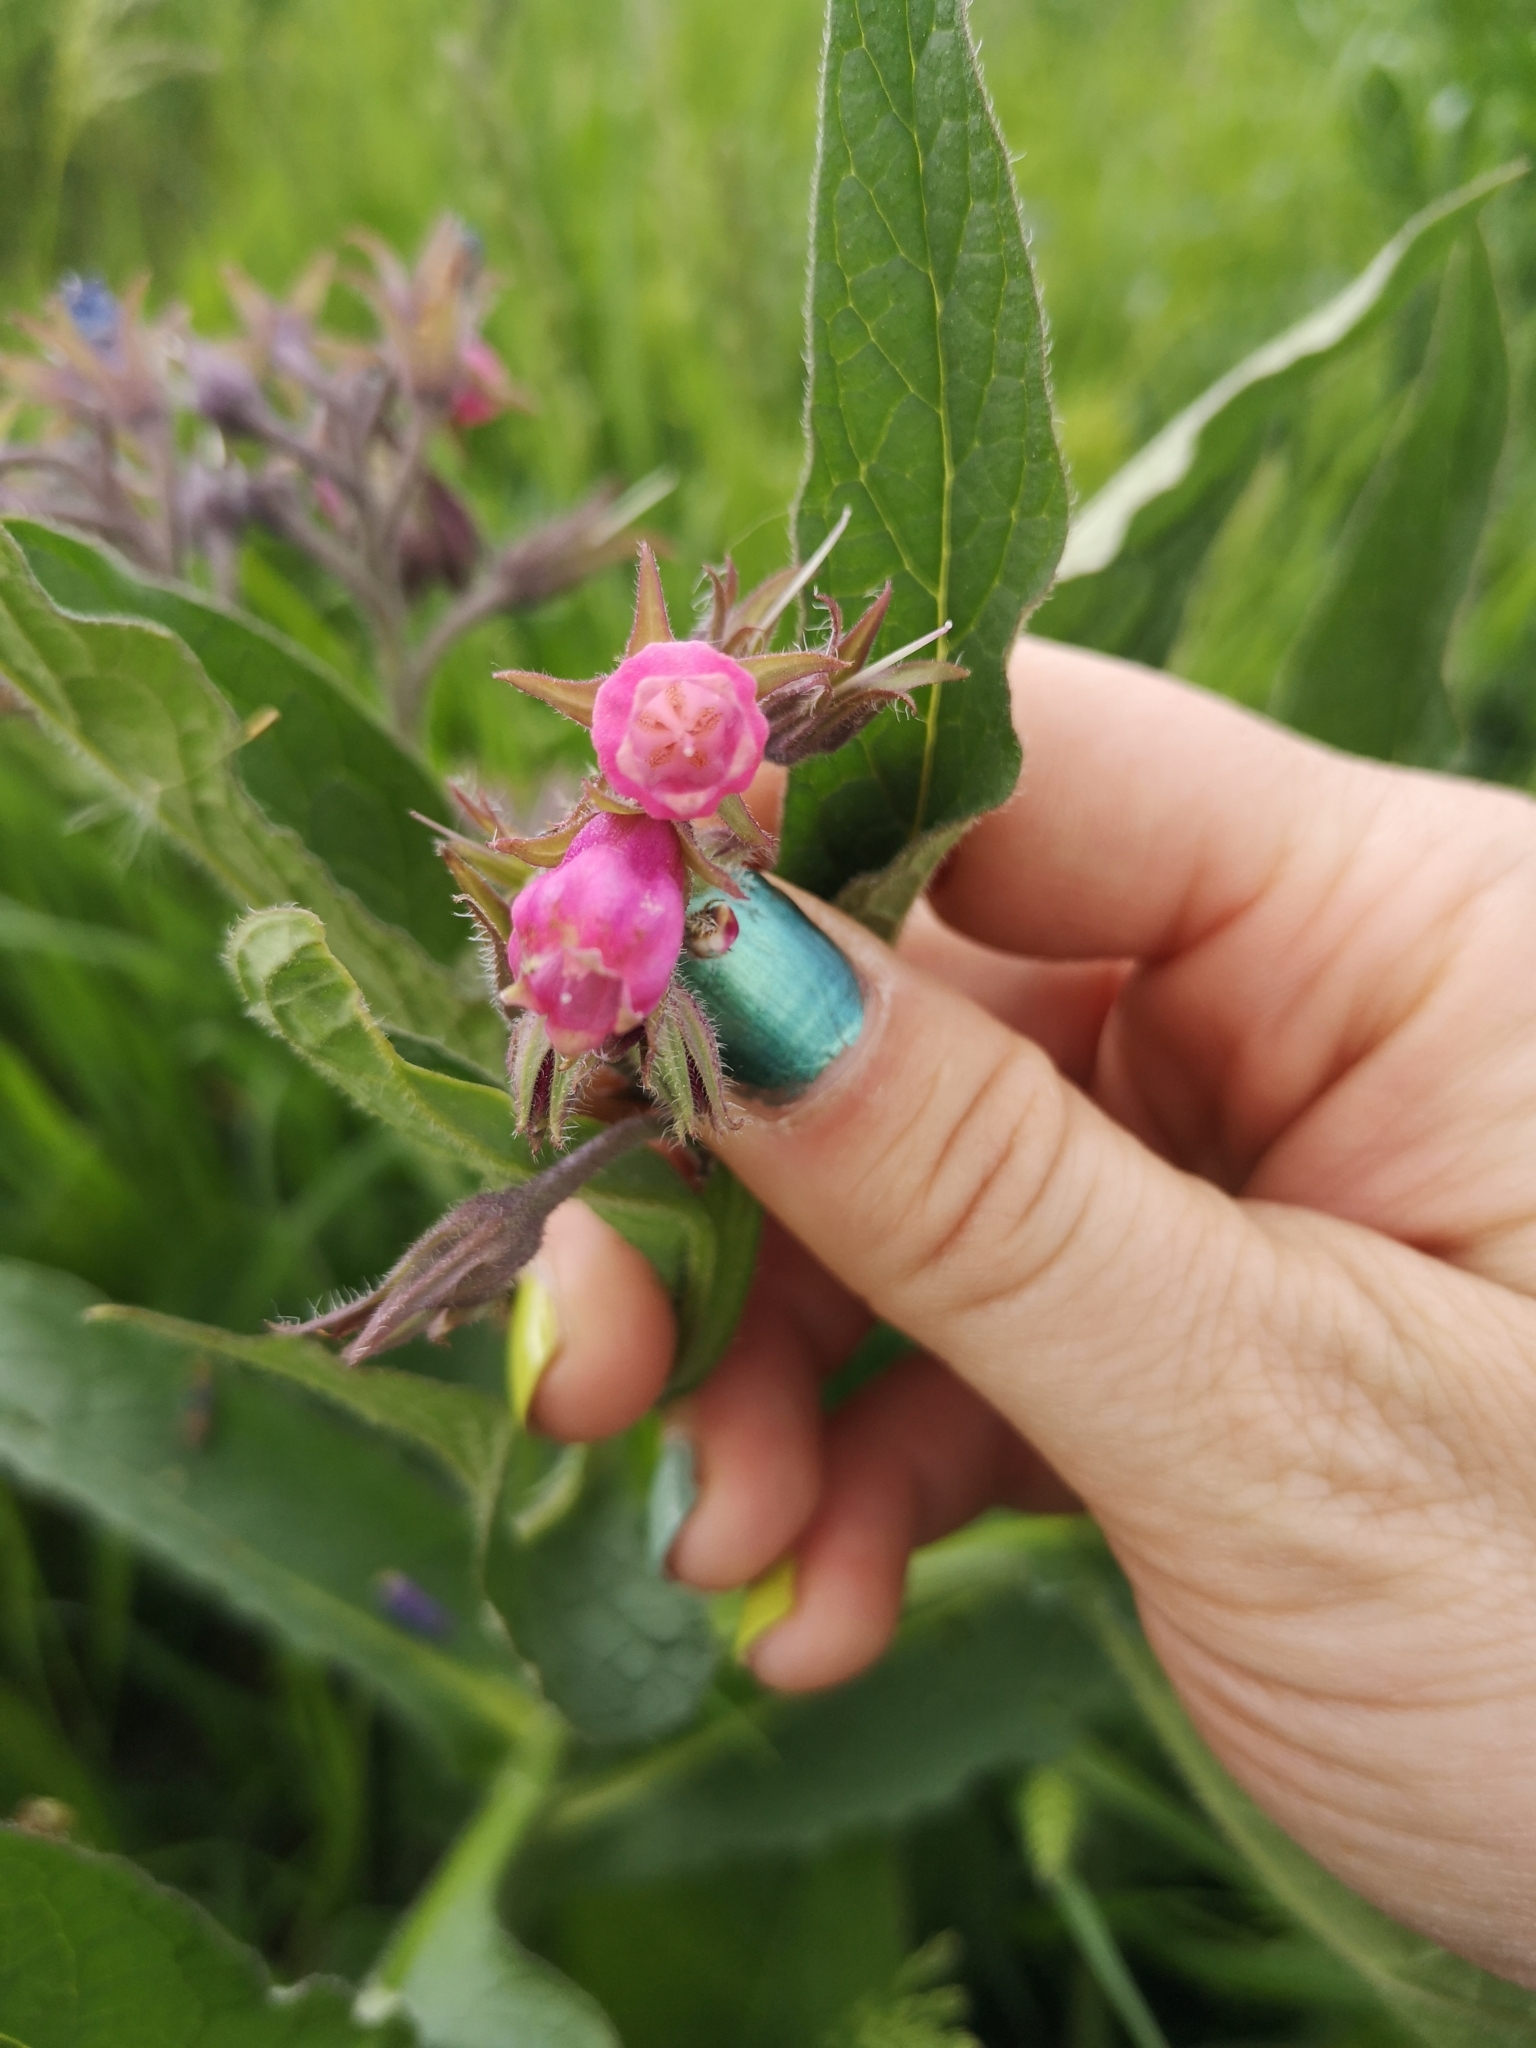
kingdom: Plantae
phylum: Tracheophyta
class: Magnoliopsida
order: Boraginales
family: Boraginaceae
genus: Symphytum
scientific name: Symphytum officinale
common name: Common comfrey
